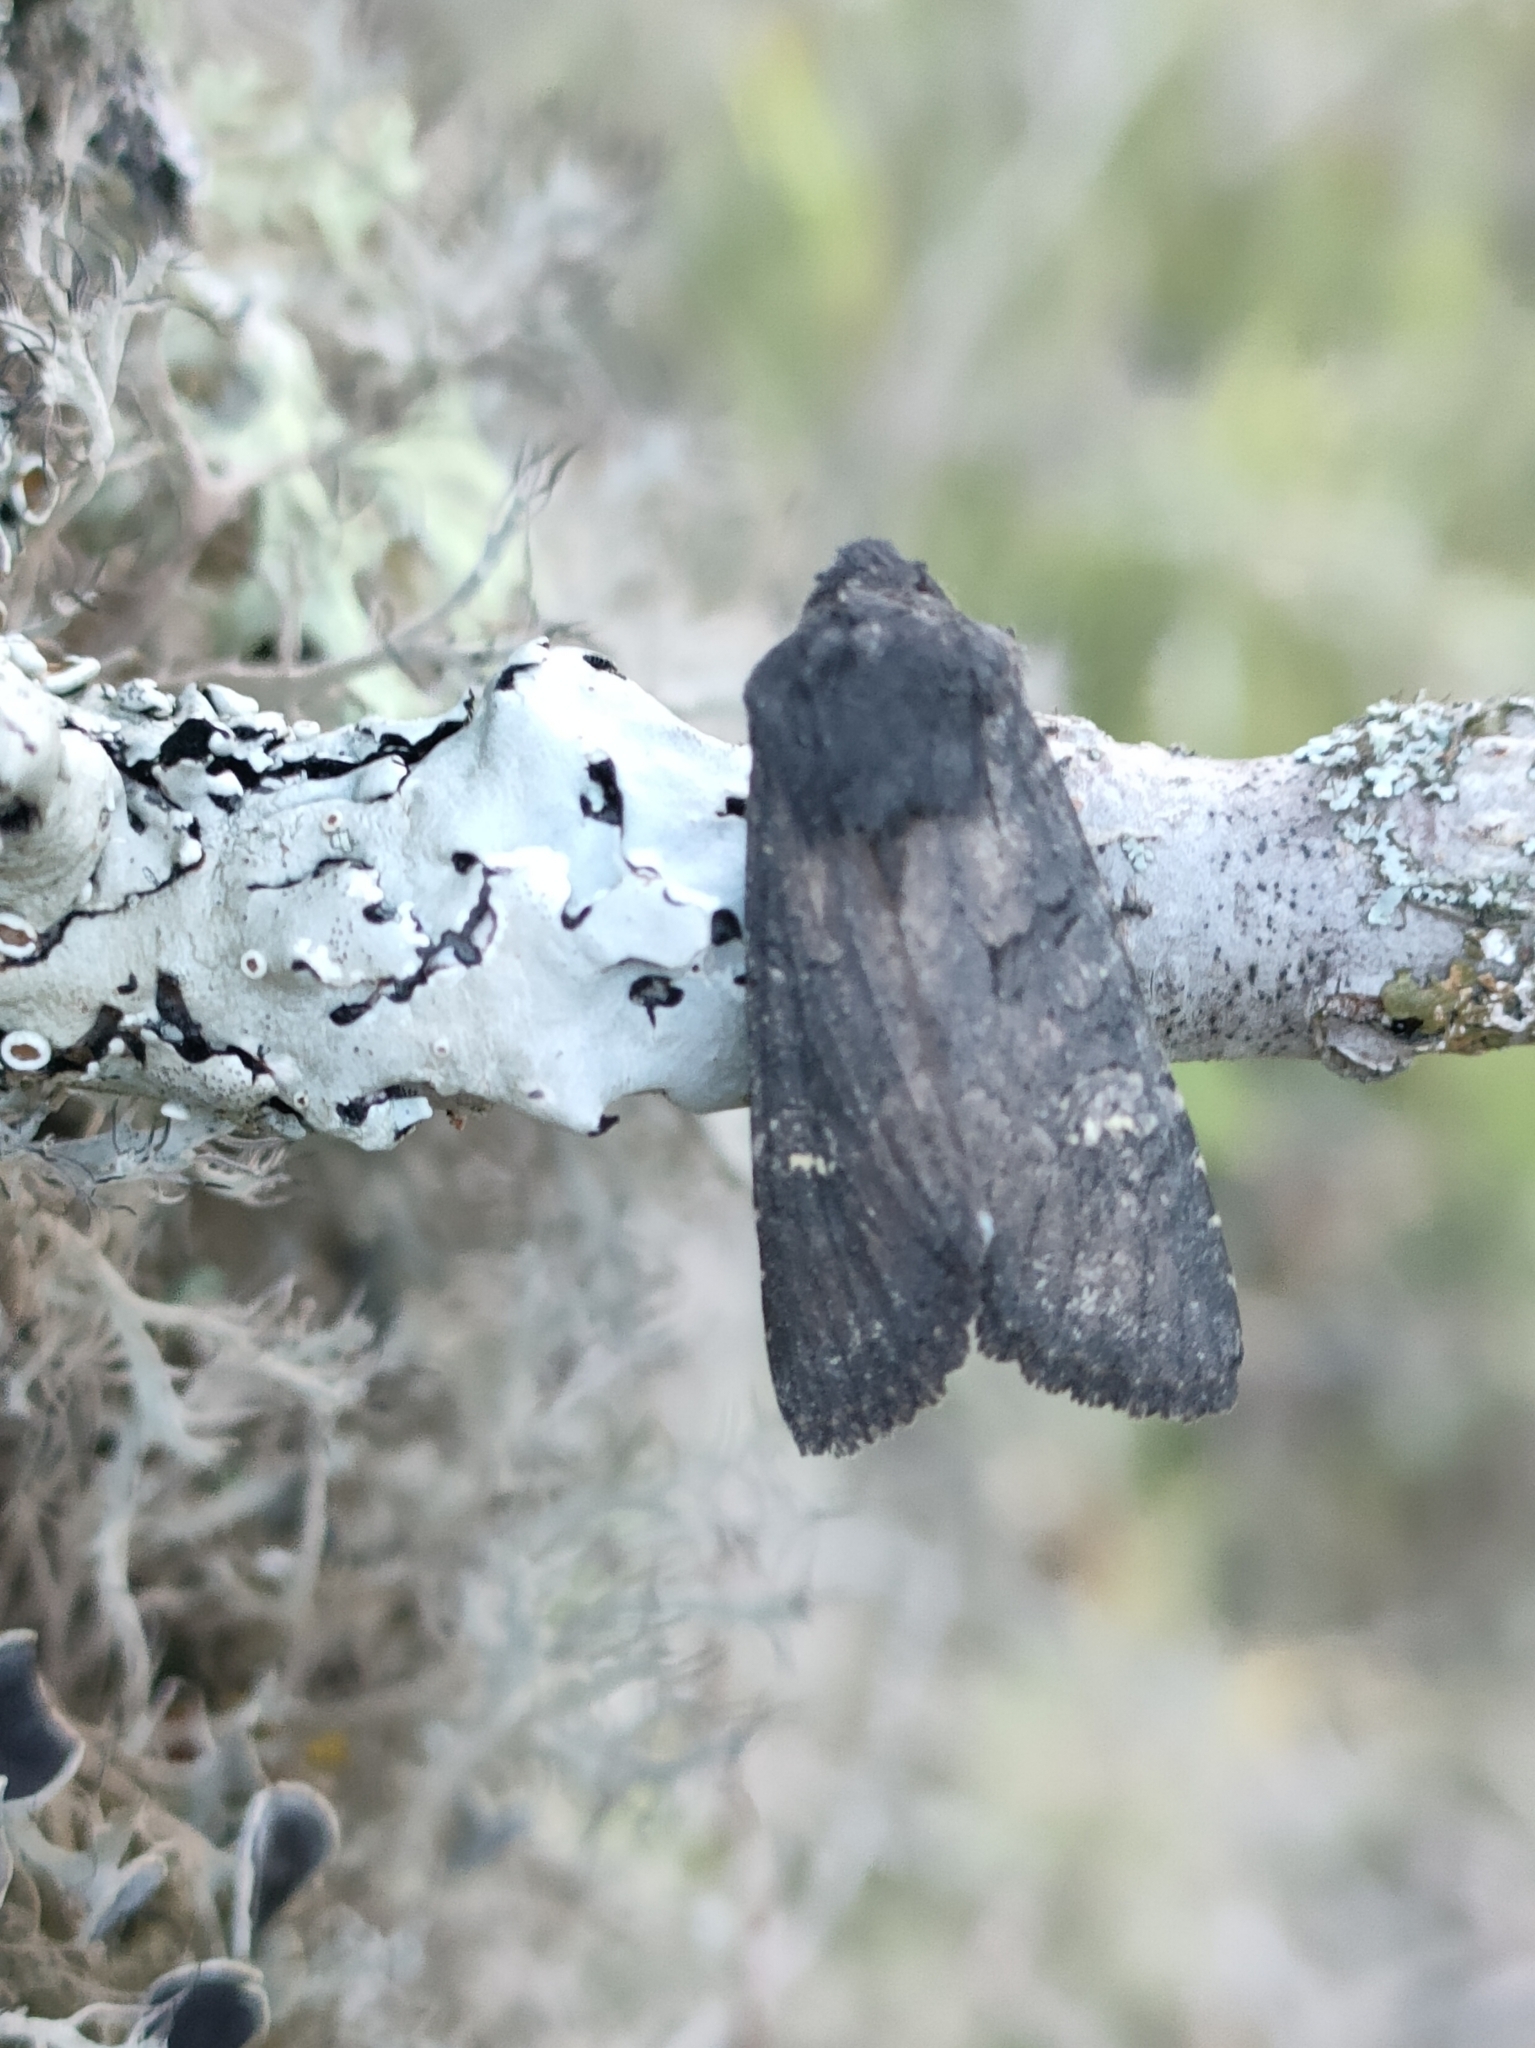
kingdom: Animalia
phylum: Arthropoda
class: Insecta
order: Lepidoptera
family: Noctuidae
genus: Aporophyla
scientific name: Aporophyla nigra
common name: Black rustic
